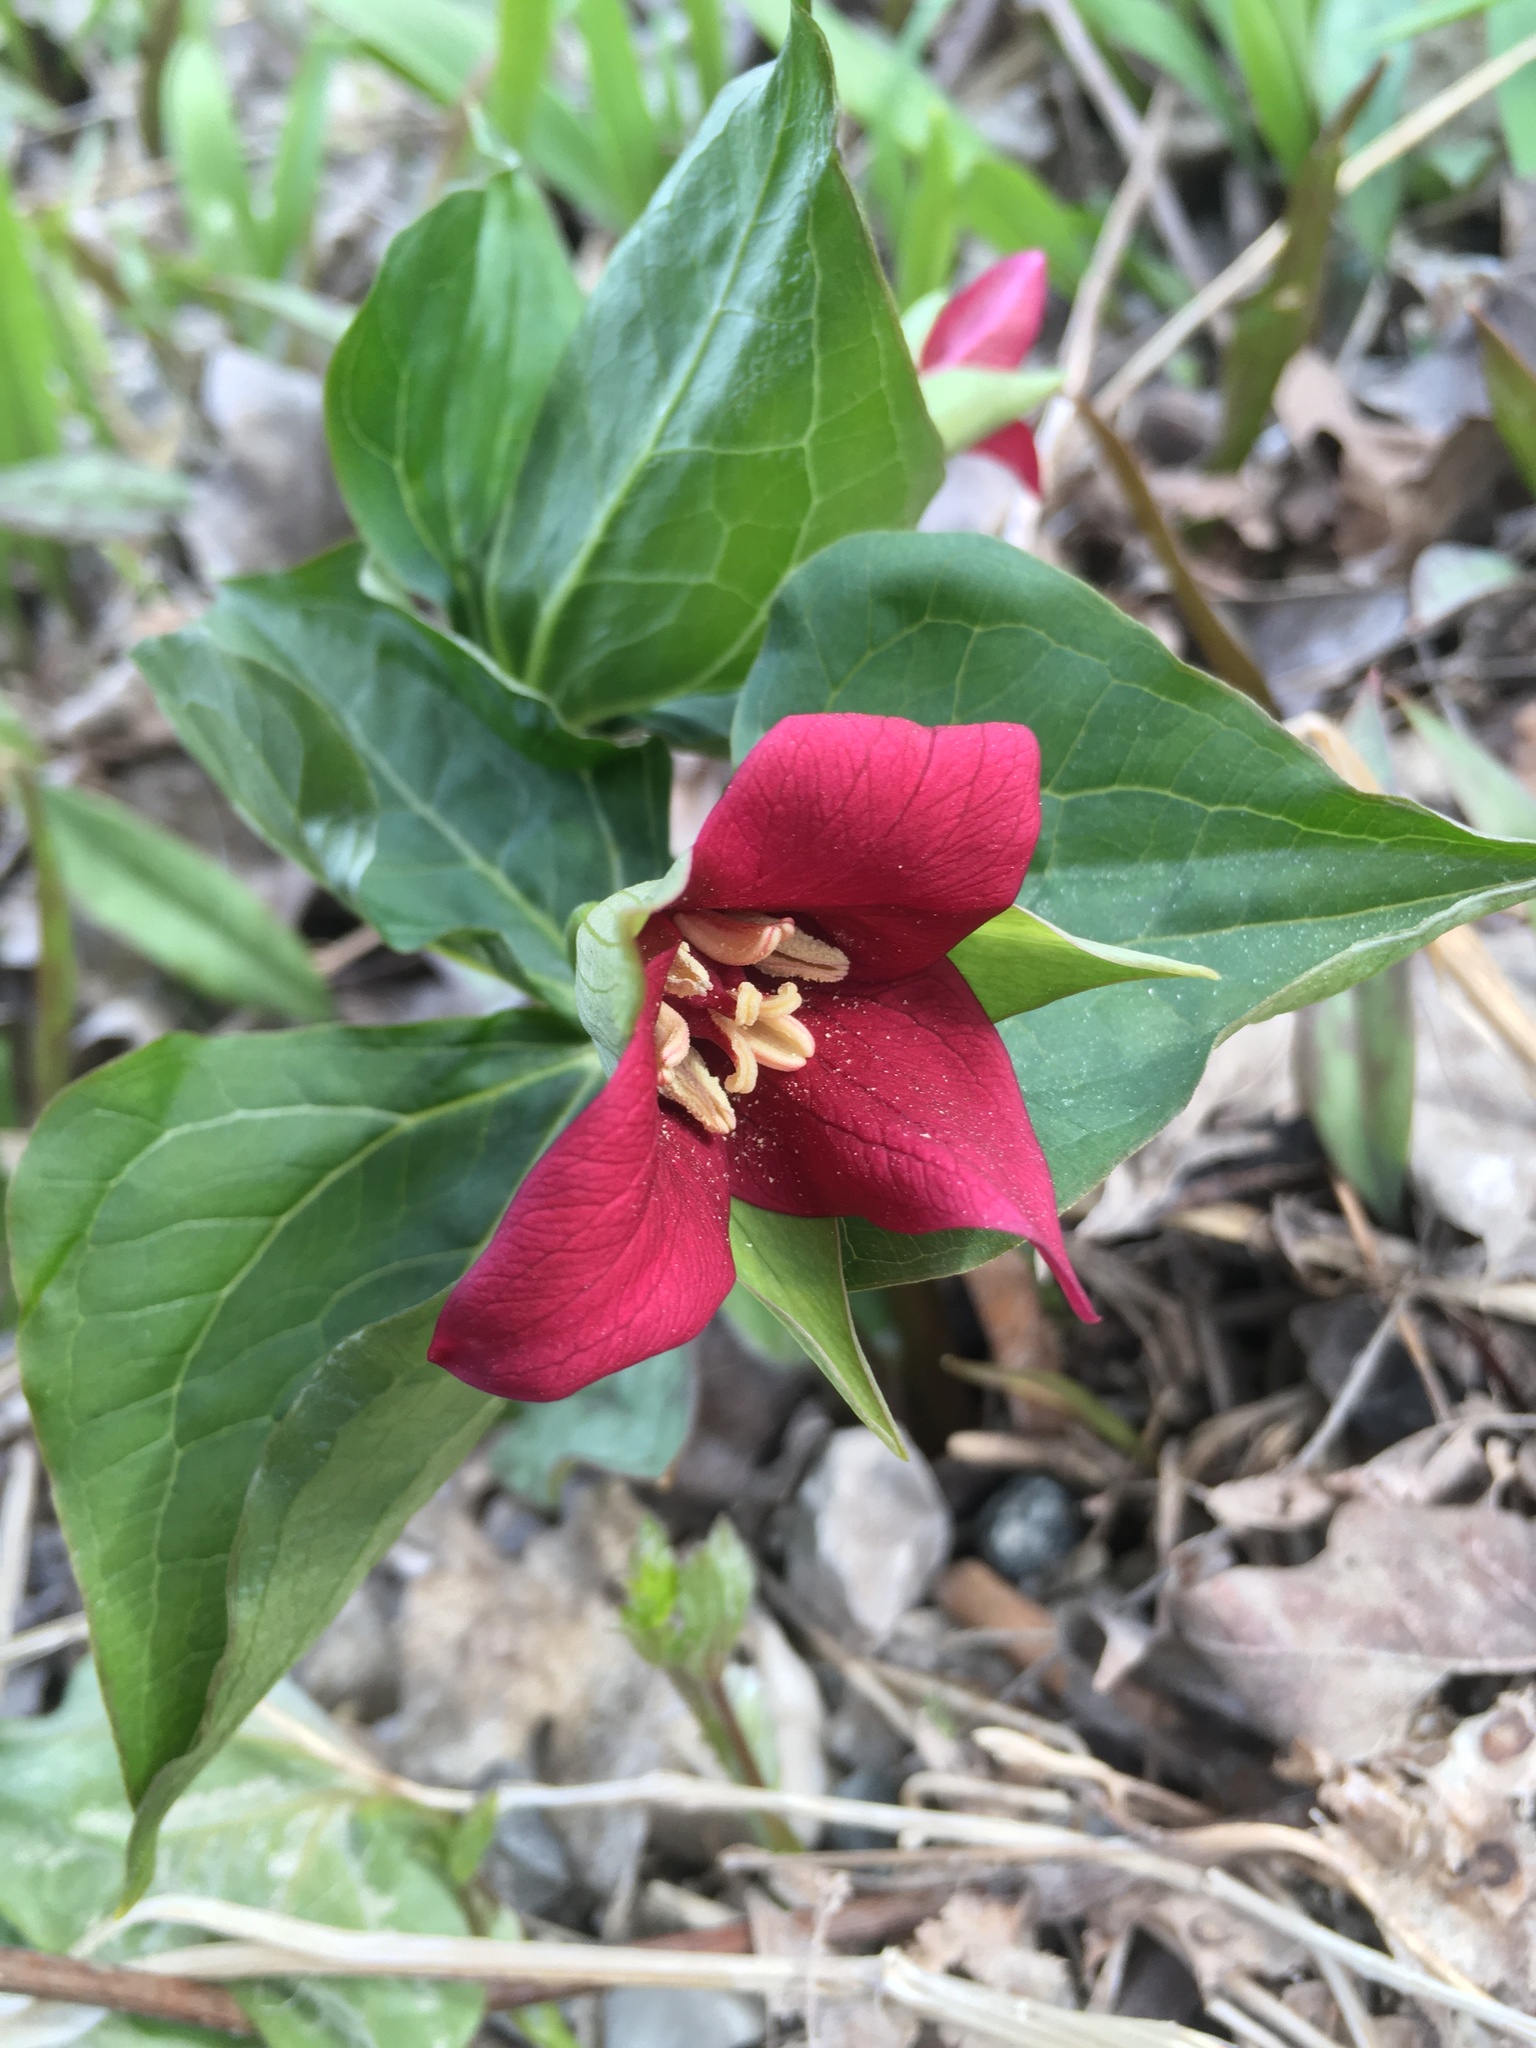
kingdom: Plantae
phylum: Tracheophyta
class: Liliopsida
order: Liliales
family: Melanthiaceae
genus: Trillium
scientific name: Trillium erectum
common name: Purple trillium
